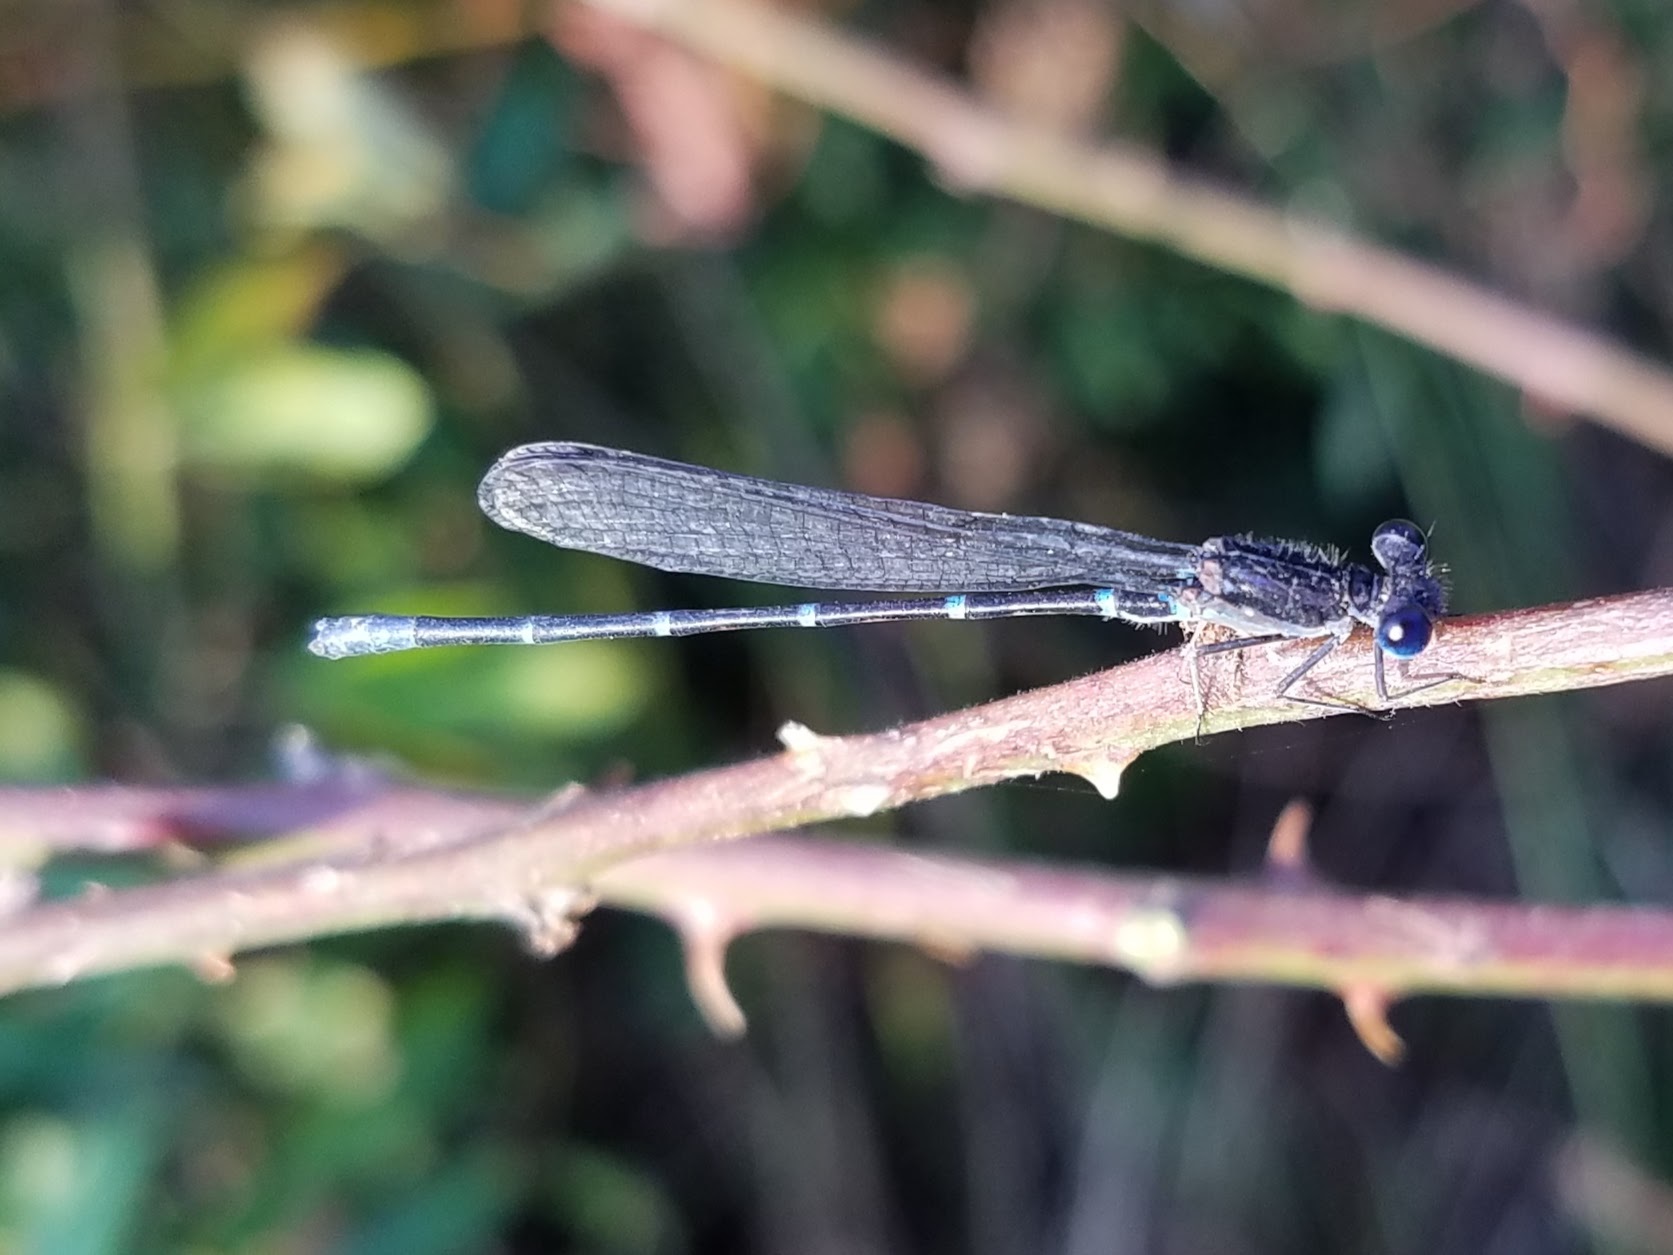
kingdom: Animalia
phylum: Arthropoda
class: Insecta
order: Odonata
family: Coenagrionidae
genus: Argia
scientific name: Argia sedula
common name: Blue-ringed dancer
